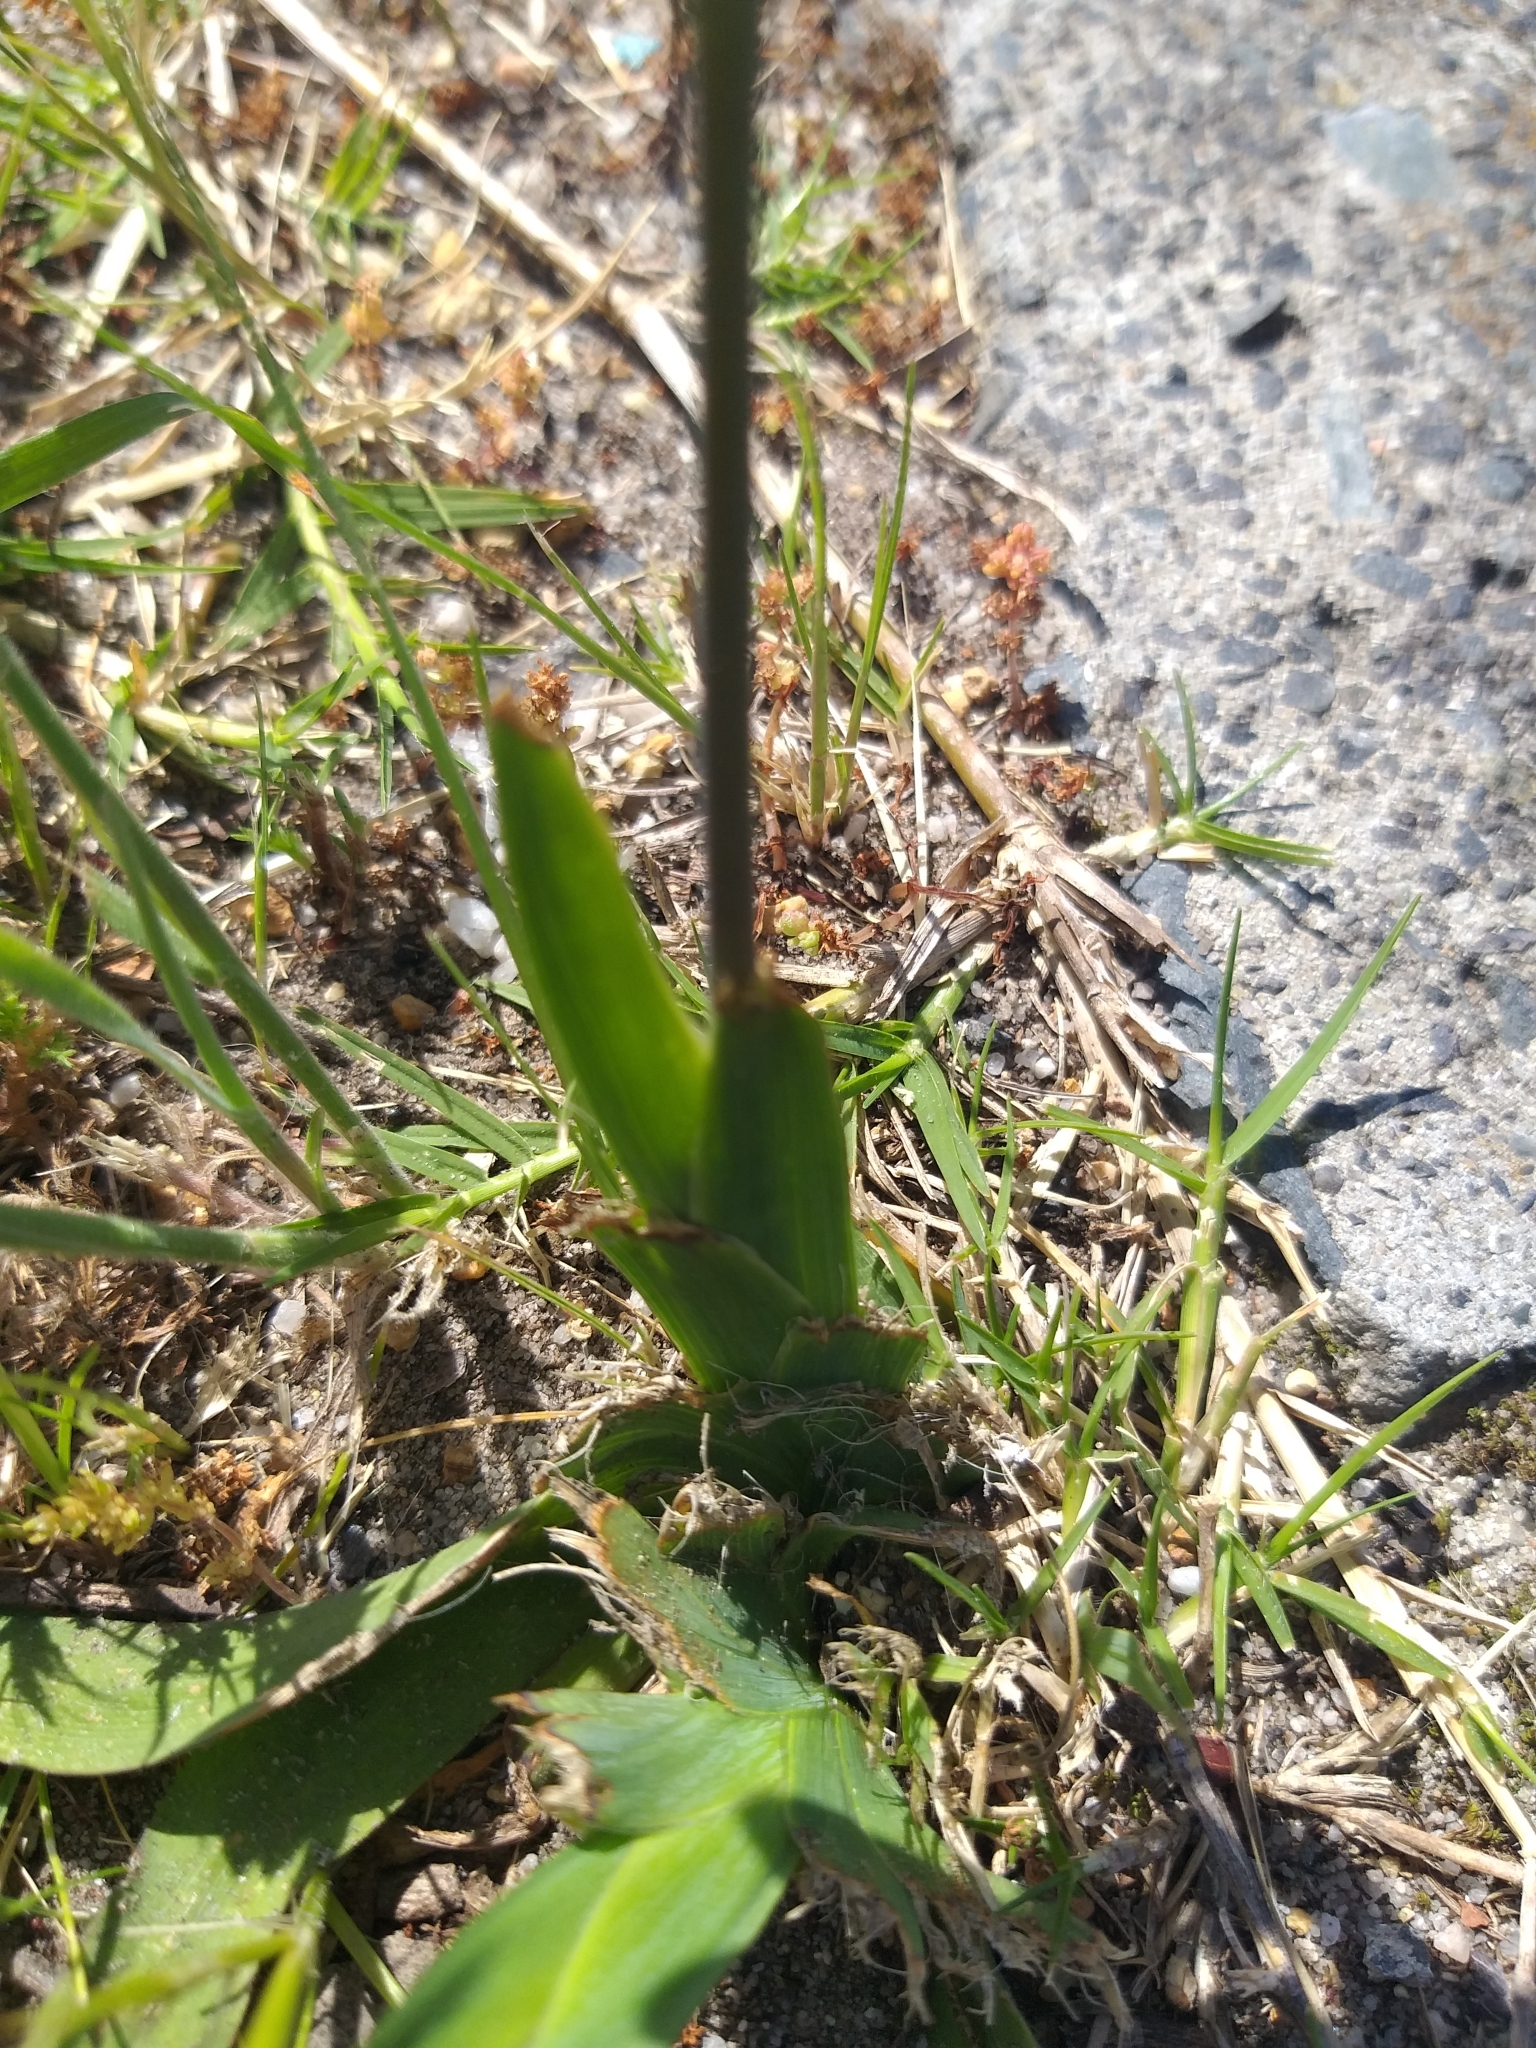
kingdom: Plantae
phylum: Tracheophyta
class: Liliopsida
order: Asparagales
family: Iridaceae
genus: Sparaxis
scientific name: Sparaxis bulbifera
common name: Harlequin-flower
